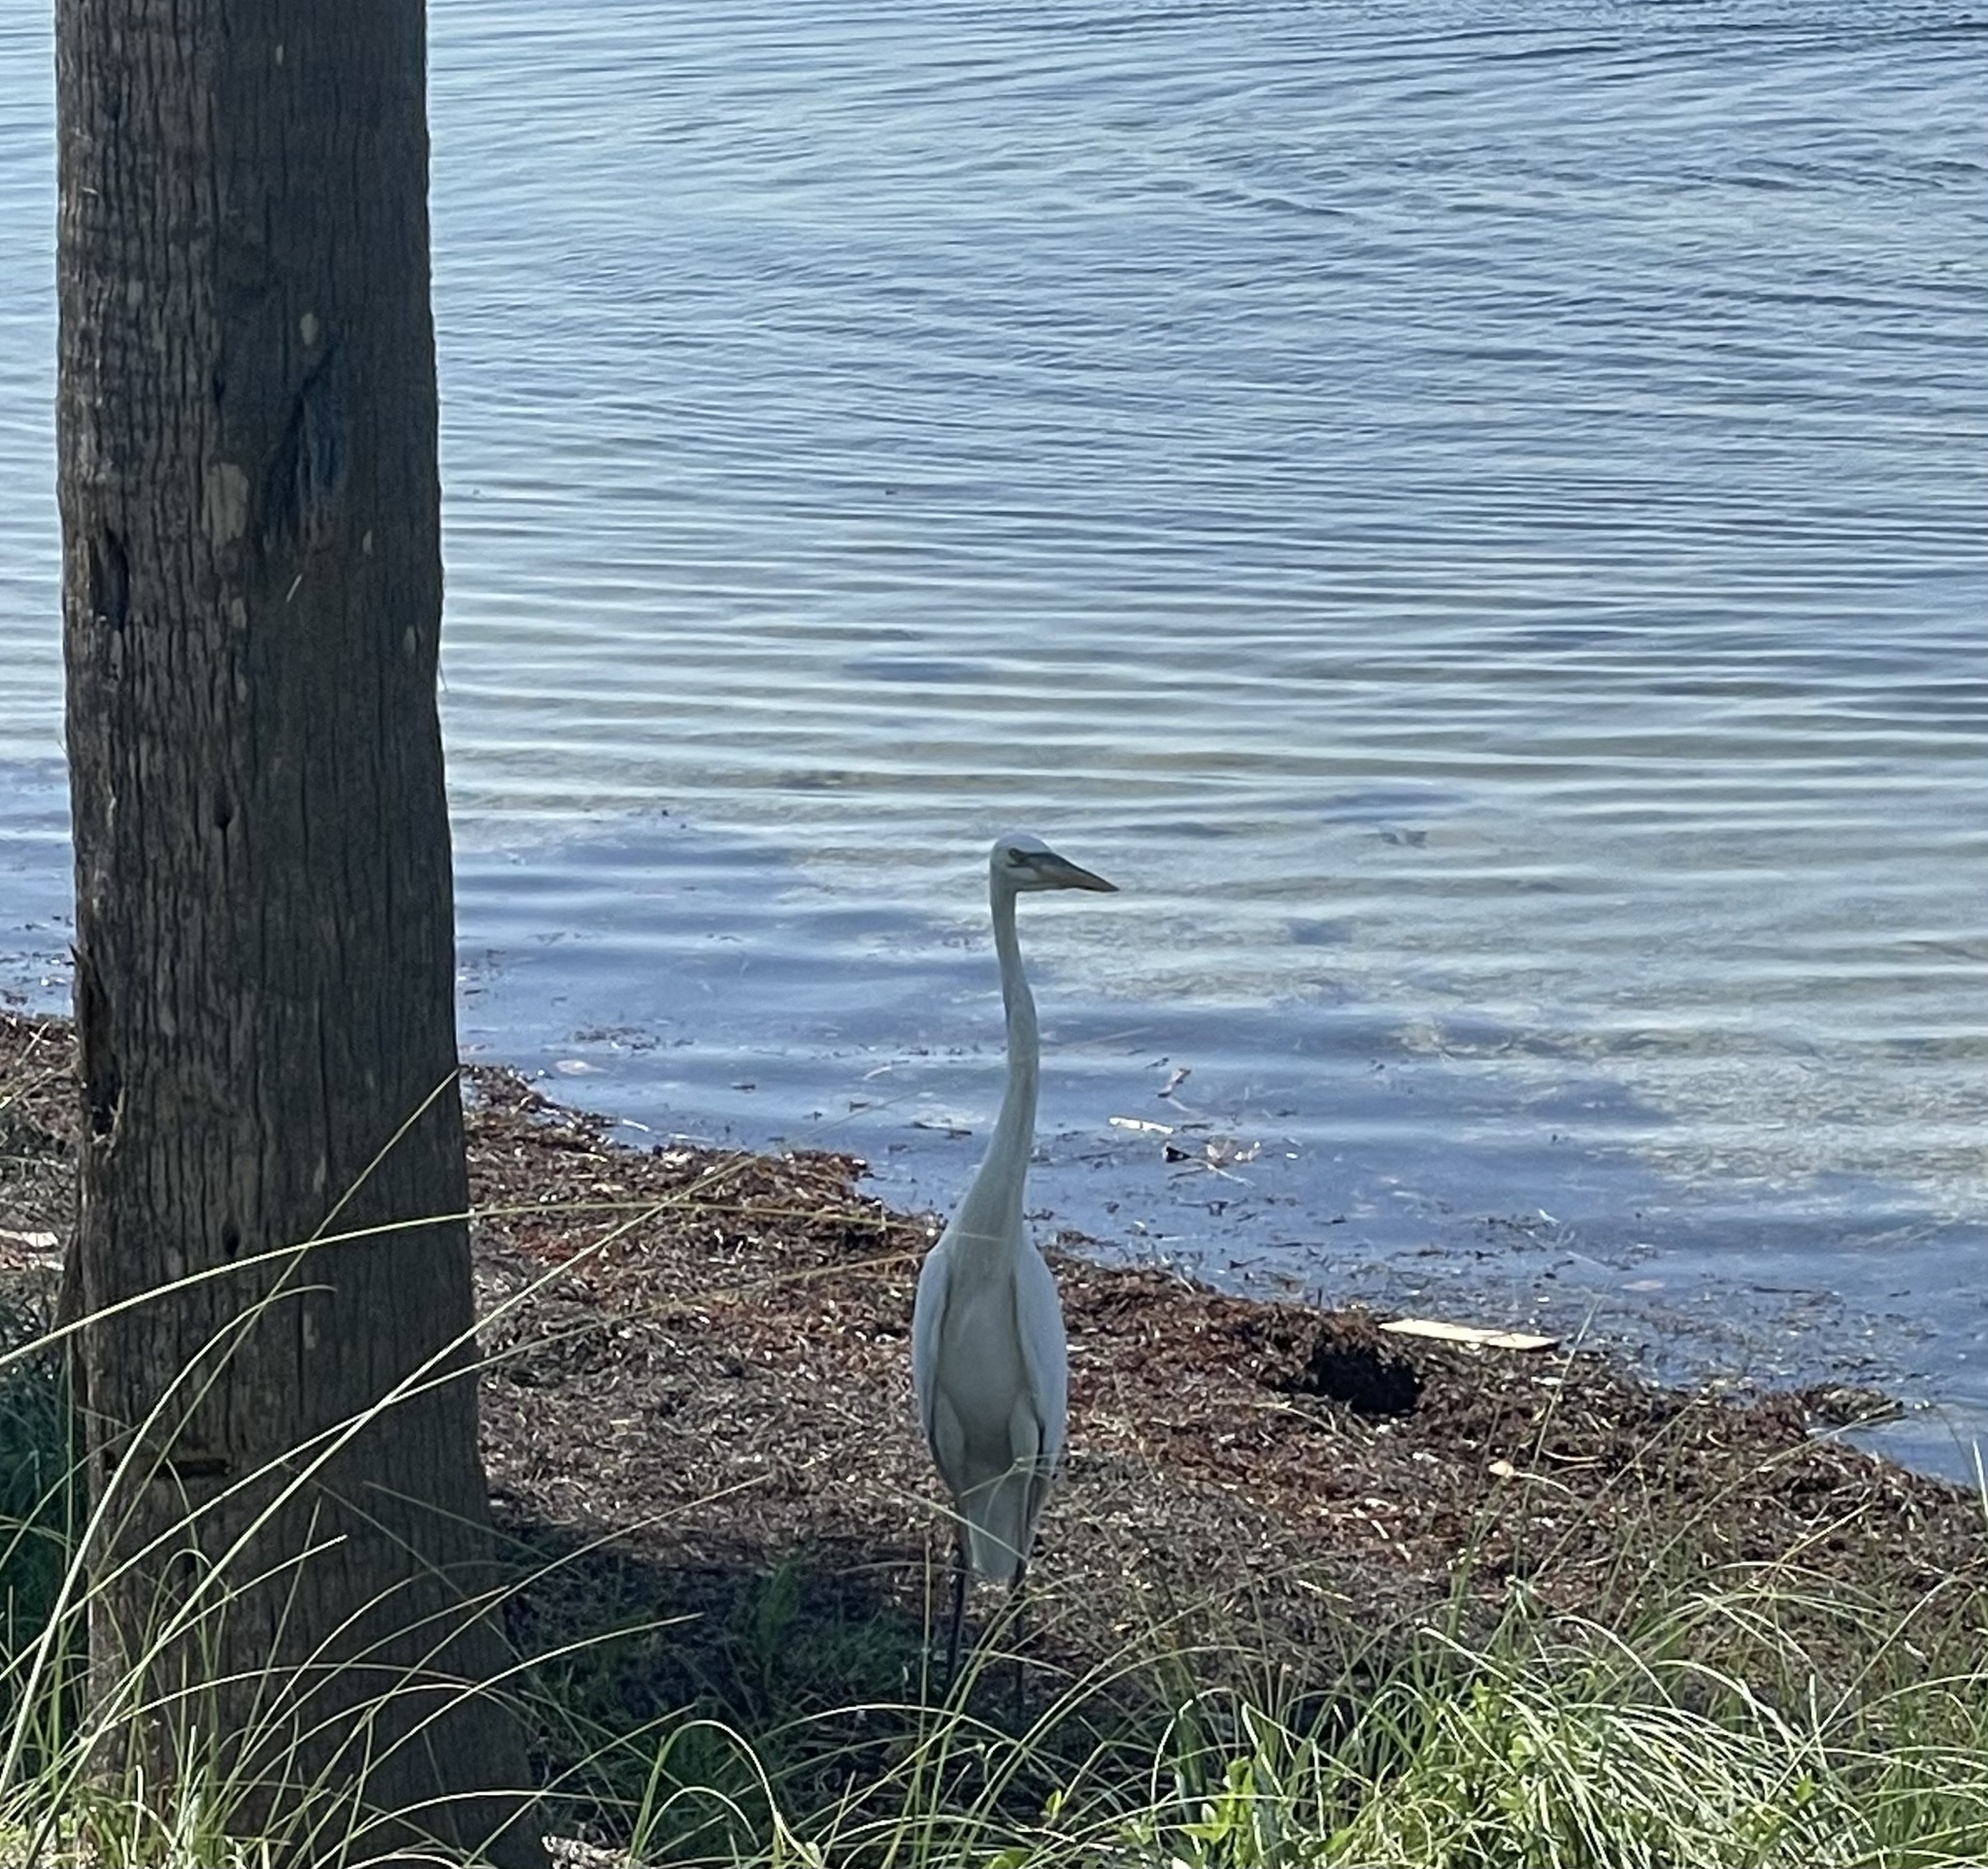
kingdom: Animalia
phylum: Chordata
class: Aves
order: Pelecaniformes
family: Ardeidae
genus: Ardea
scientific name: Ardea alba
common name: Great egret
